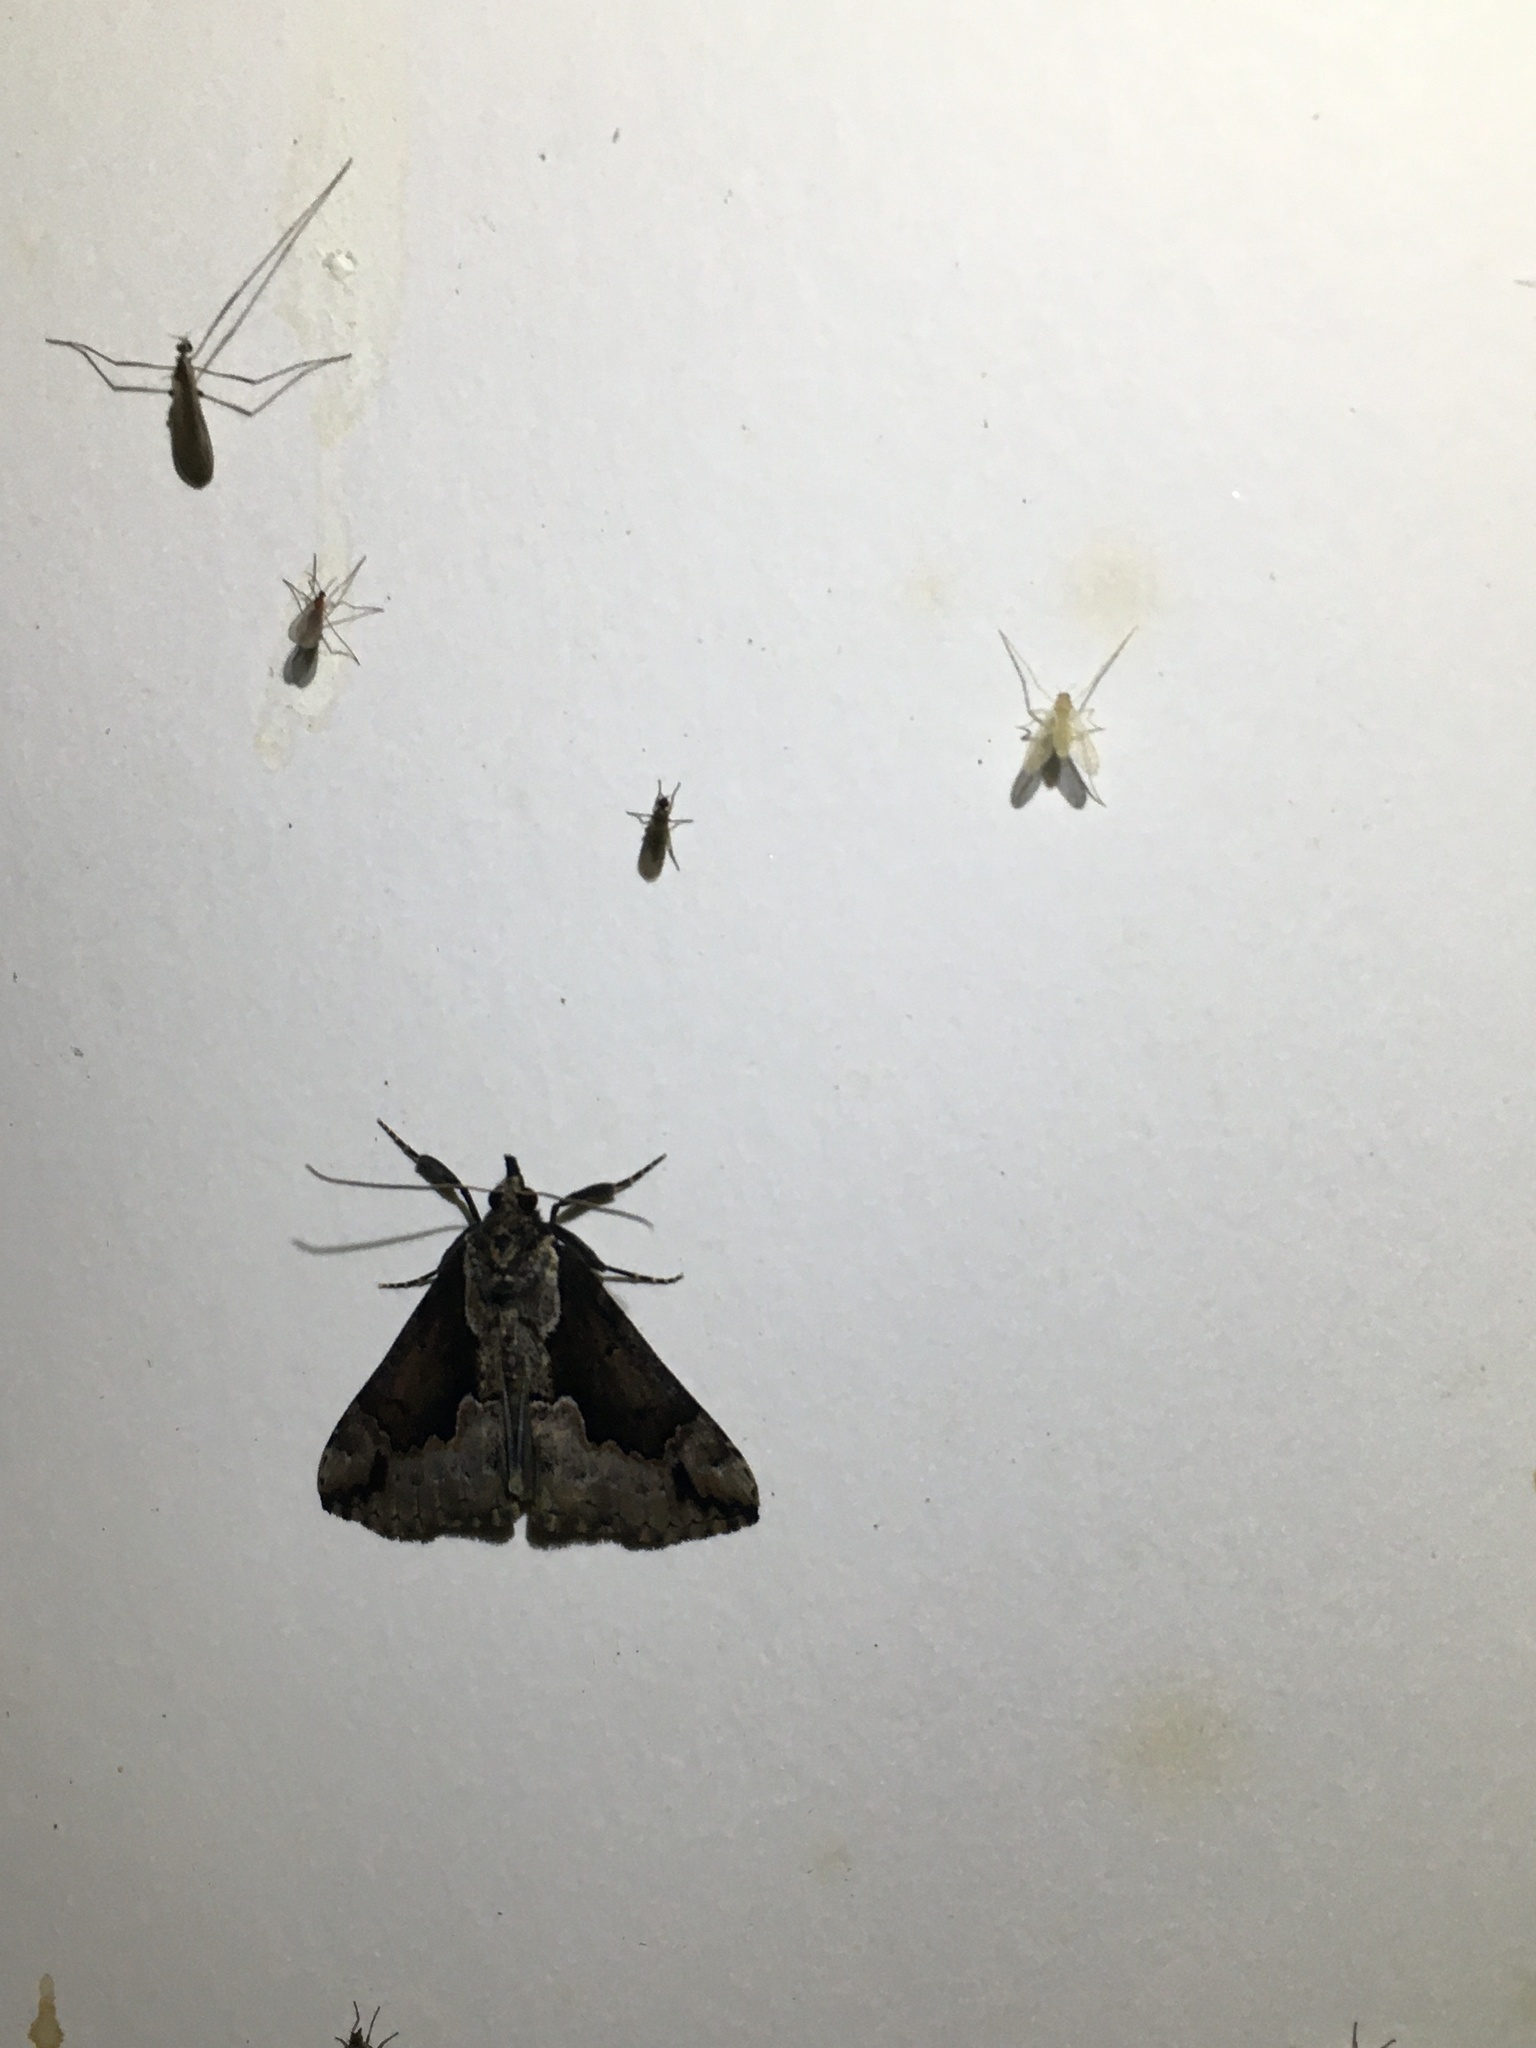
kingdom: Animalia
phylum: Arthropoda
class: Insecta
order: Lepidoptera
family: Erebidae
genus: Hypena
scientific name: Hypena baltimoralis
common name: Baltimore snout
